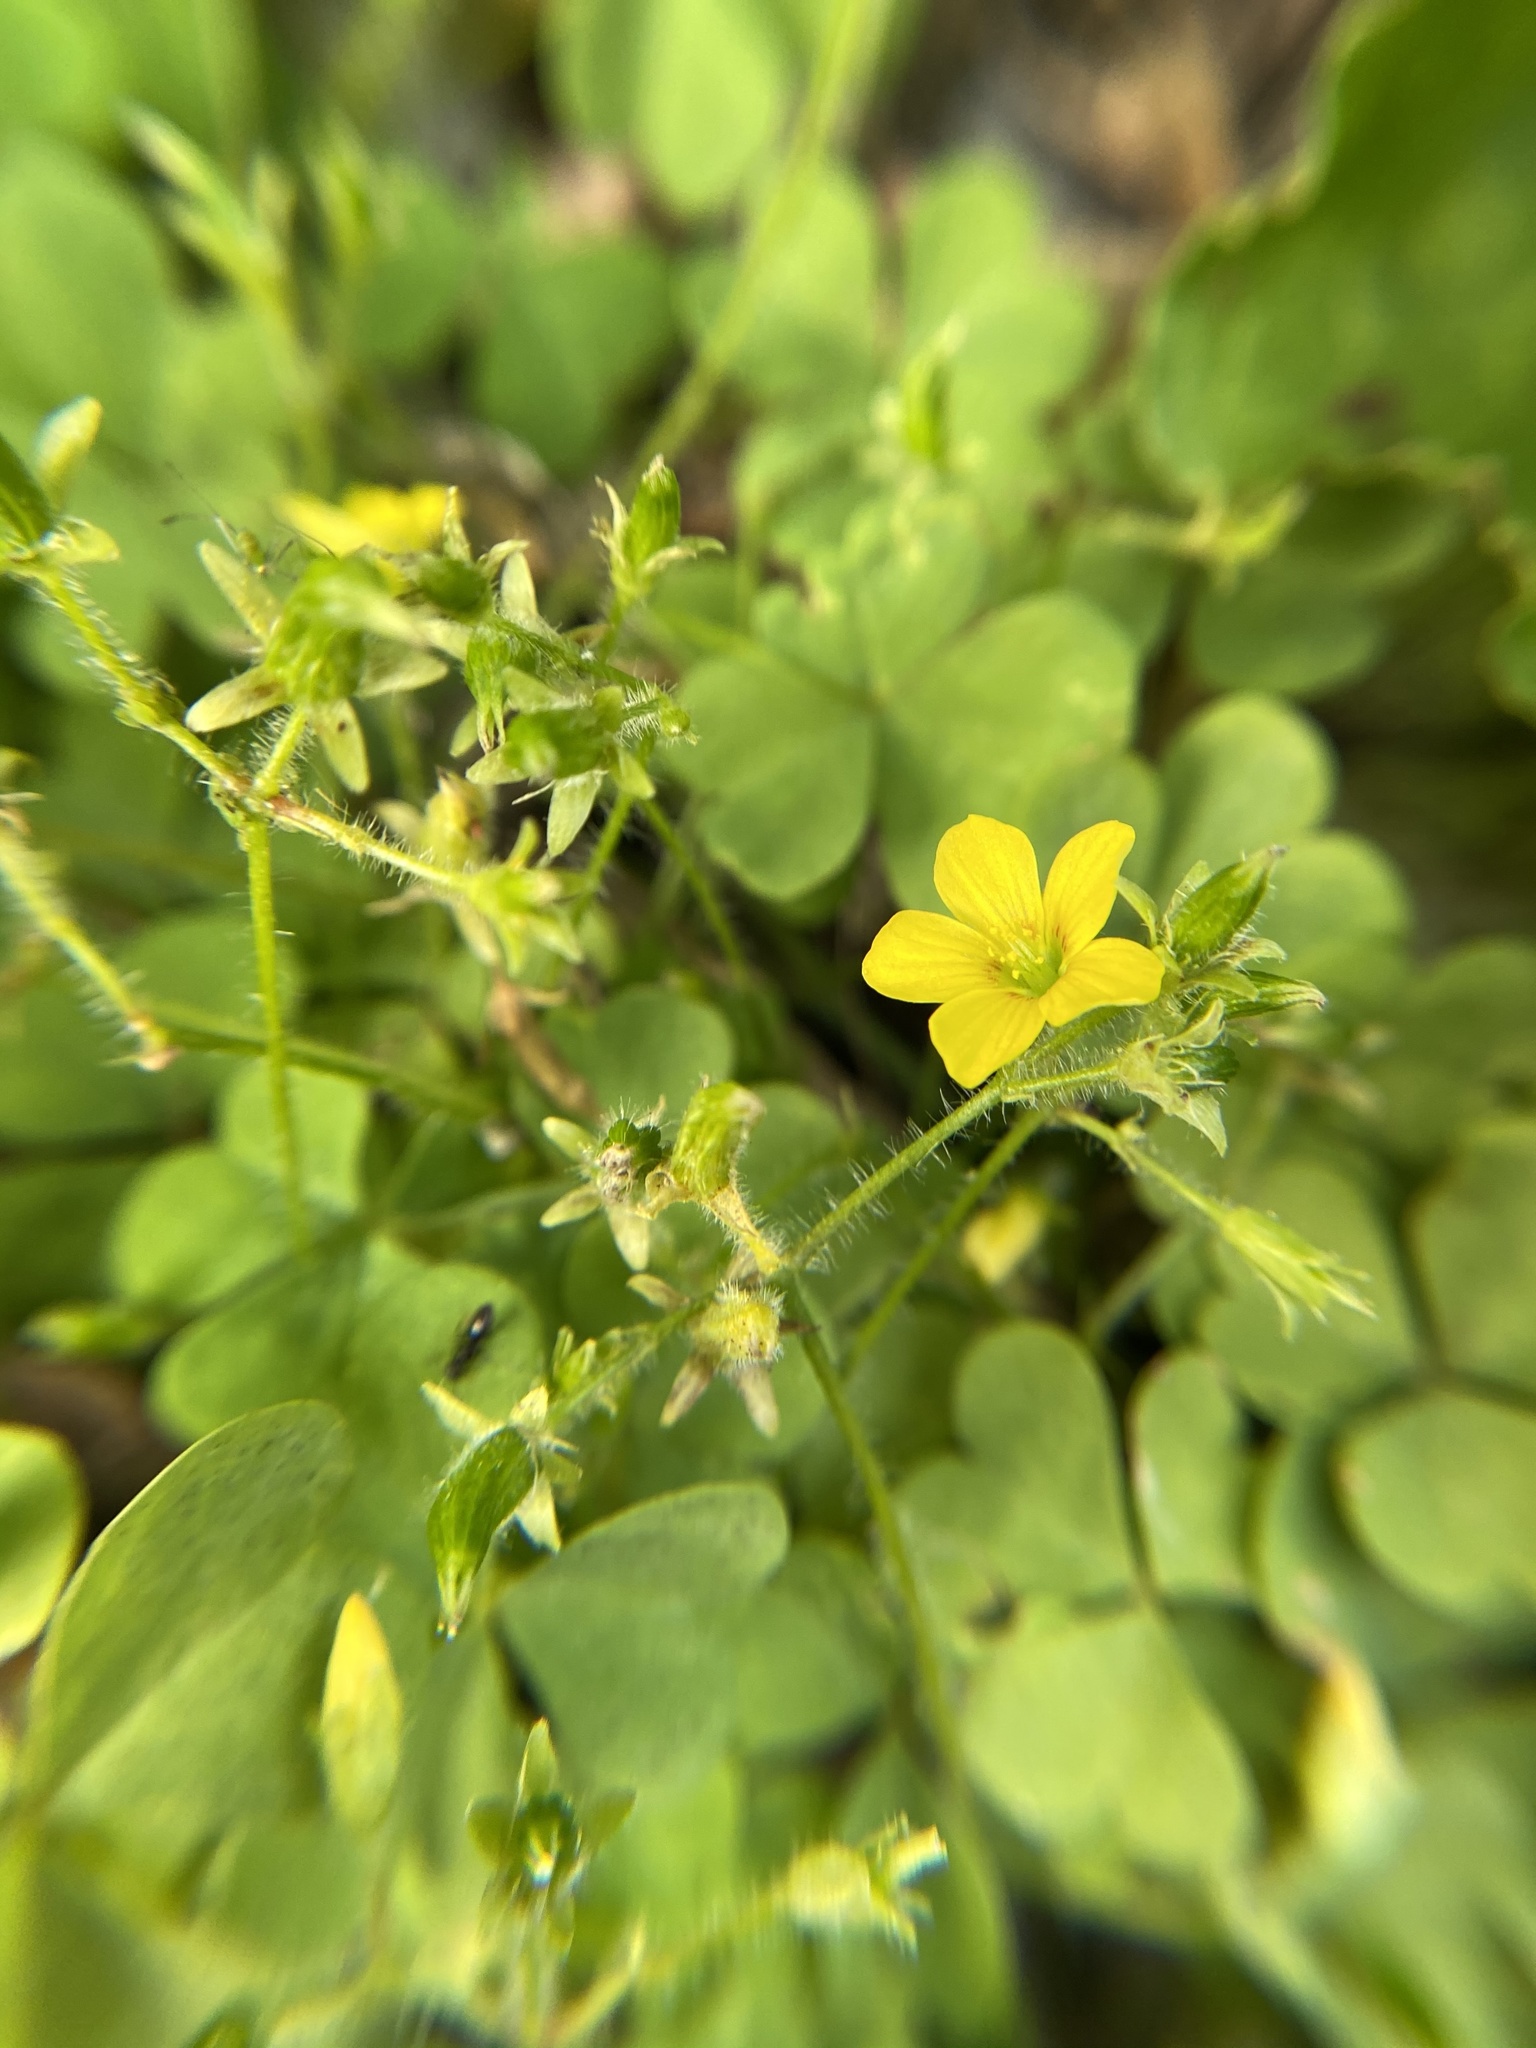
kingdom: Plantae
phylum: Tracheophyta
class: Magnoliopsida
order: Oxalidales
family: Oxalidaceae
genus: Oxalis
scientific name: Oxalis corniculata
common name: Procumbent yellow-sorrel
